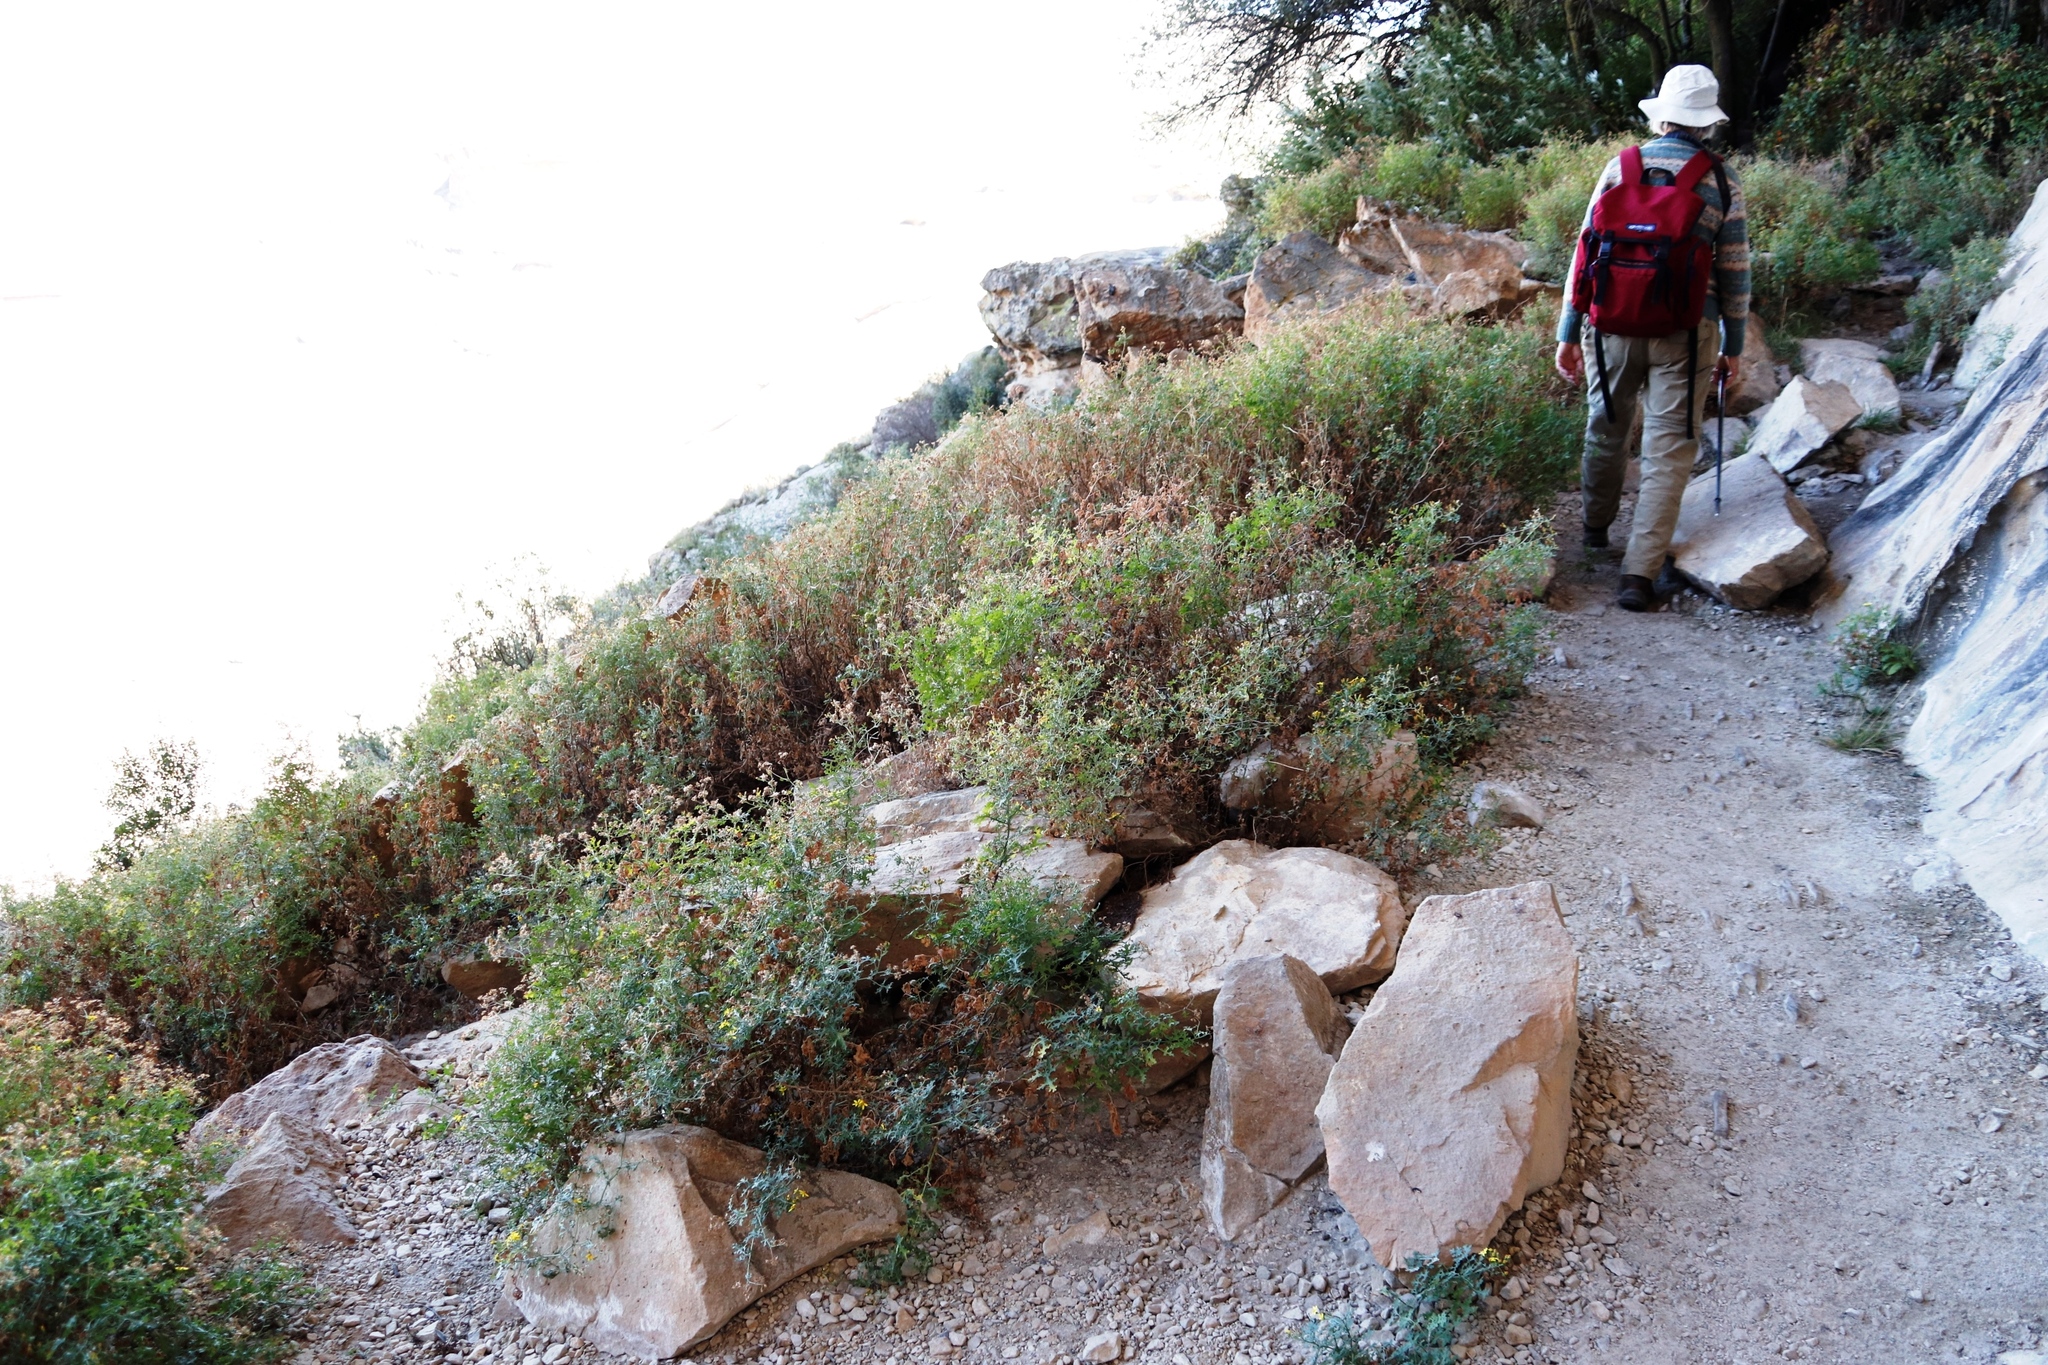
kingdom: Plantae
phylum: Tracheophyta
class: Magnoliopsida
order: Asterales
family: Asteraceae
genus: Cineraria
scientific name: Cineraria lyratiformis
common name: Cineraria
